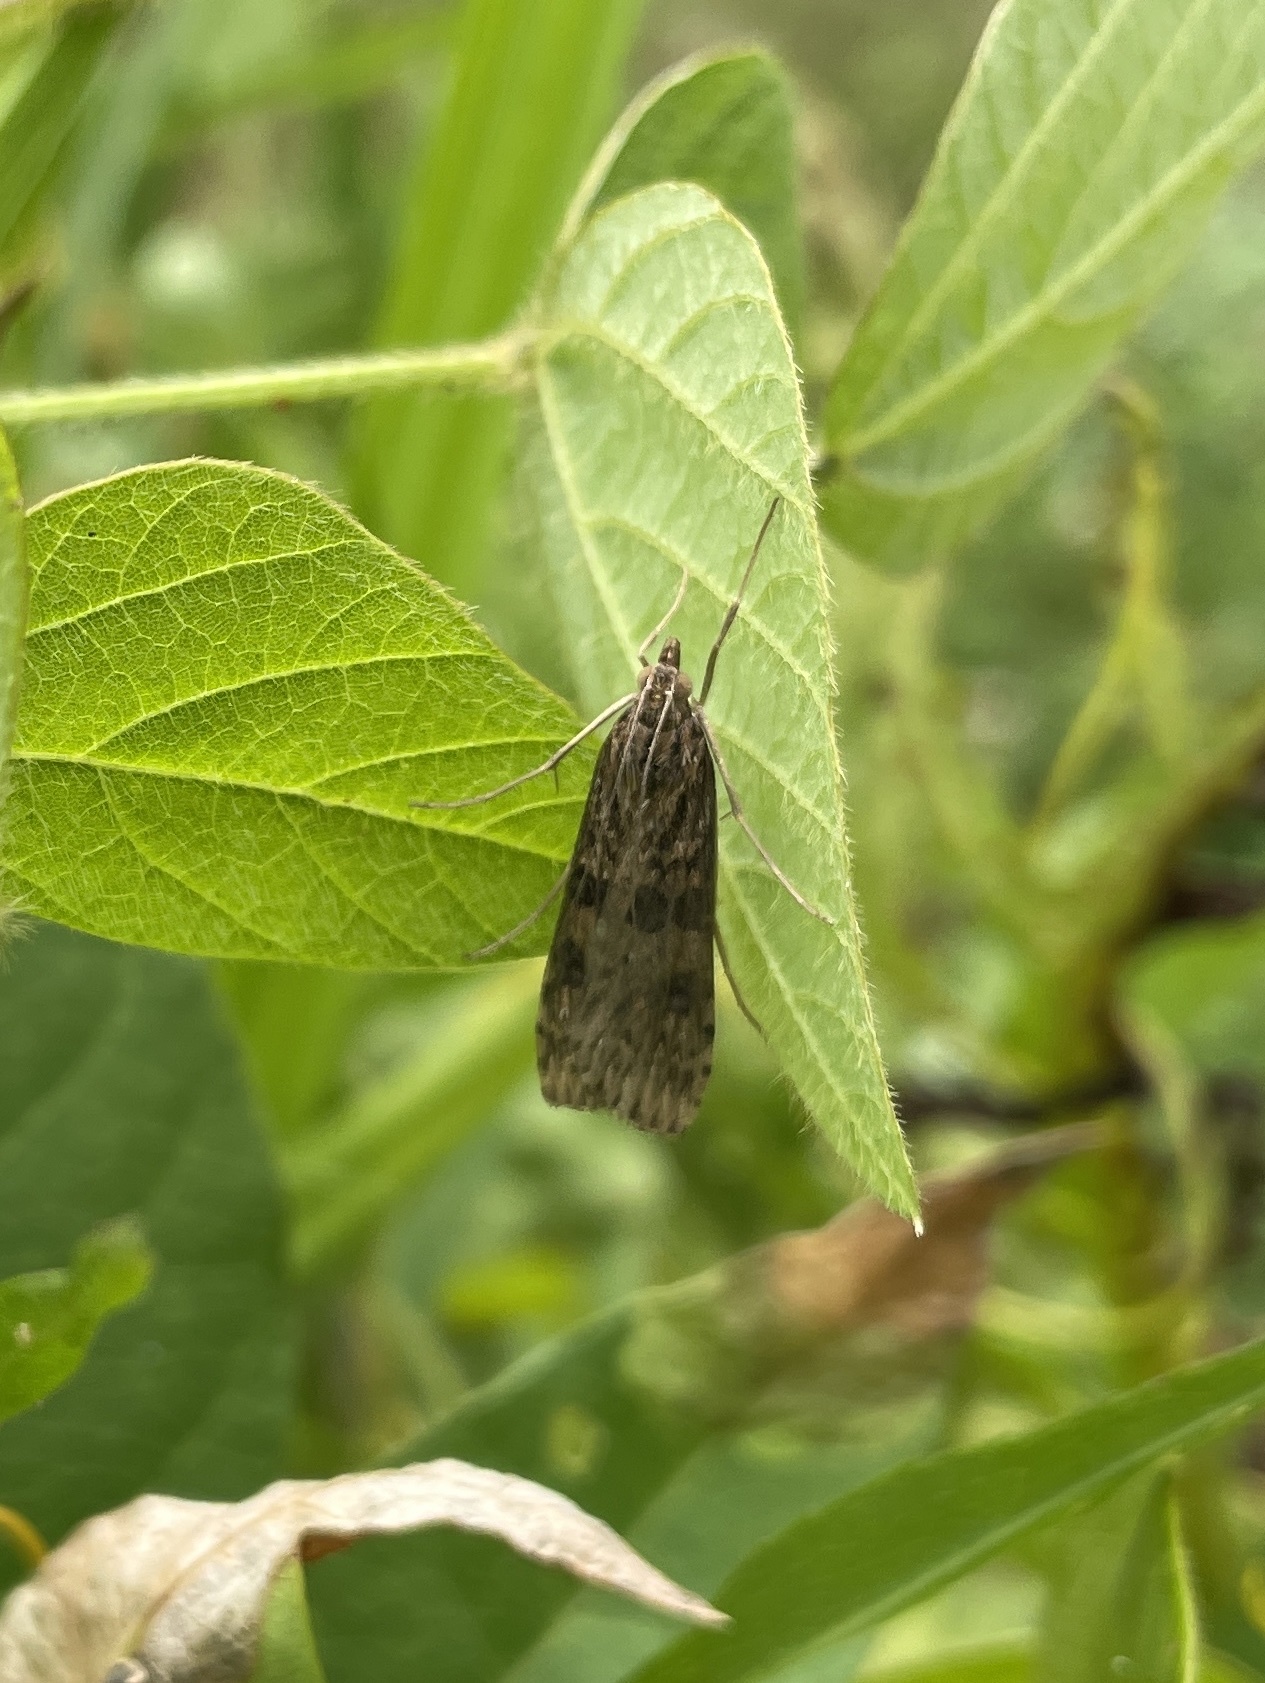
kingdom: Animalia
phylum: Arthropoda
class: Insecta
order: Lepidoptera
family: Crambidae
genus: Nomophila
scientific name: Nomophila nearctica
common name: American rush veneer
